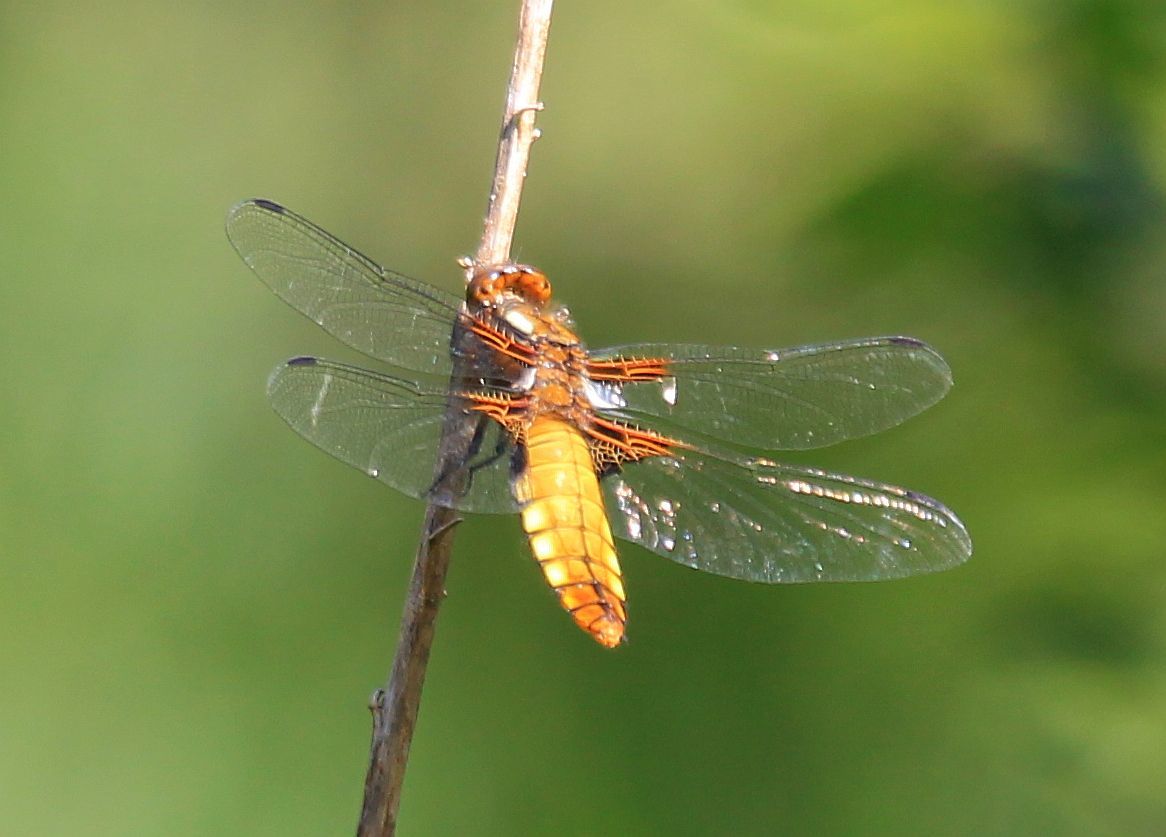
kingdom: Animalia
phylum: Arthropoda
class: Insecta
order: Odonata
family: Libellulidae
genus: Libellula
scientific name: Libellula depressa
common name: Broad-bodied chaser
